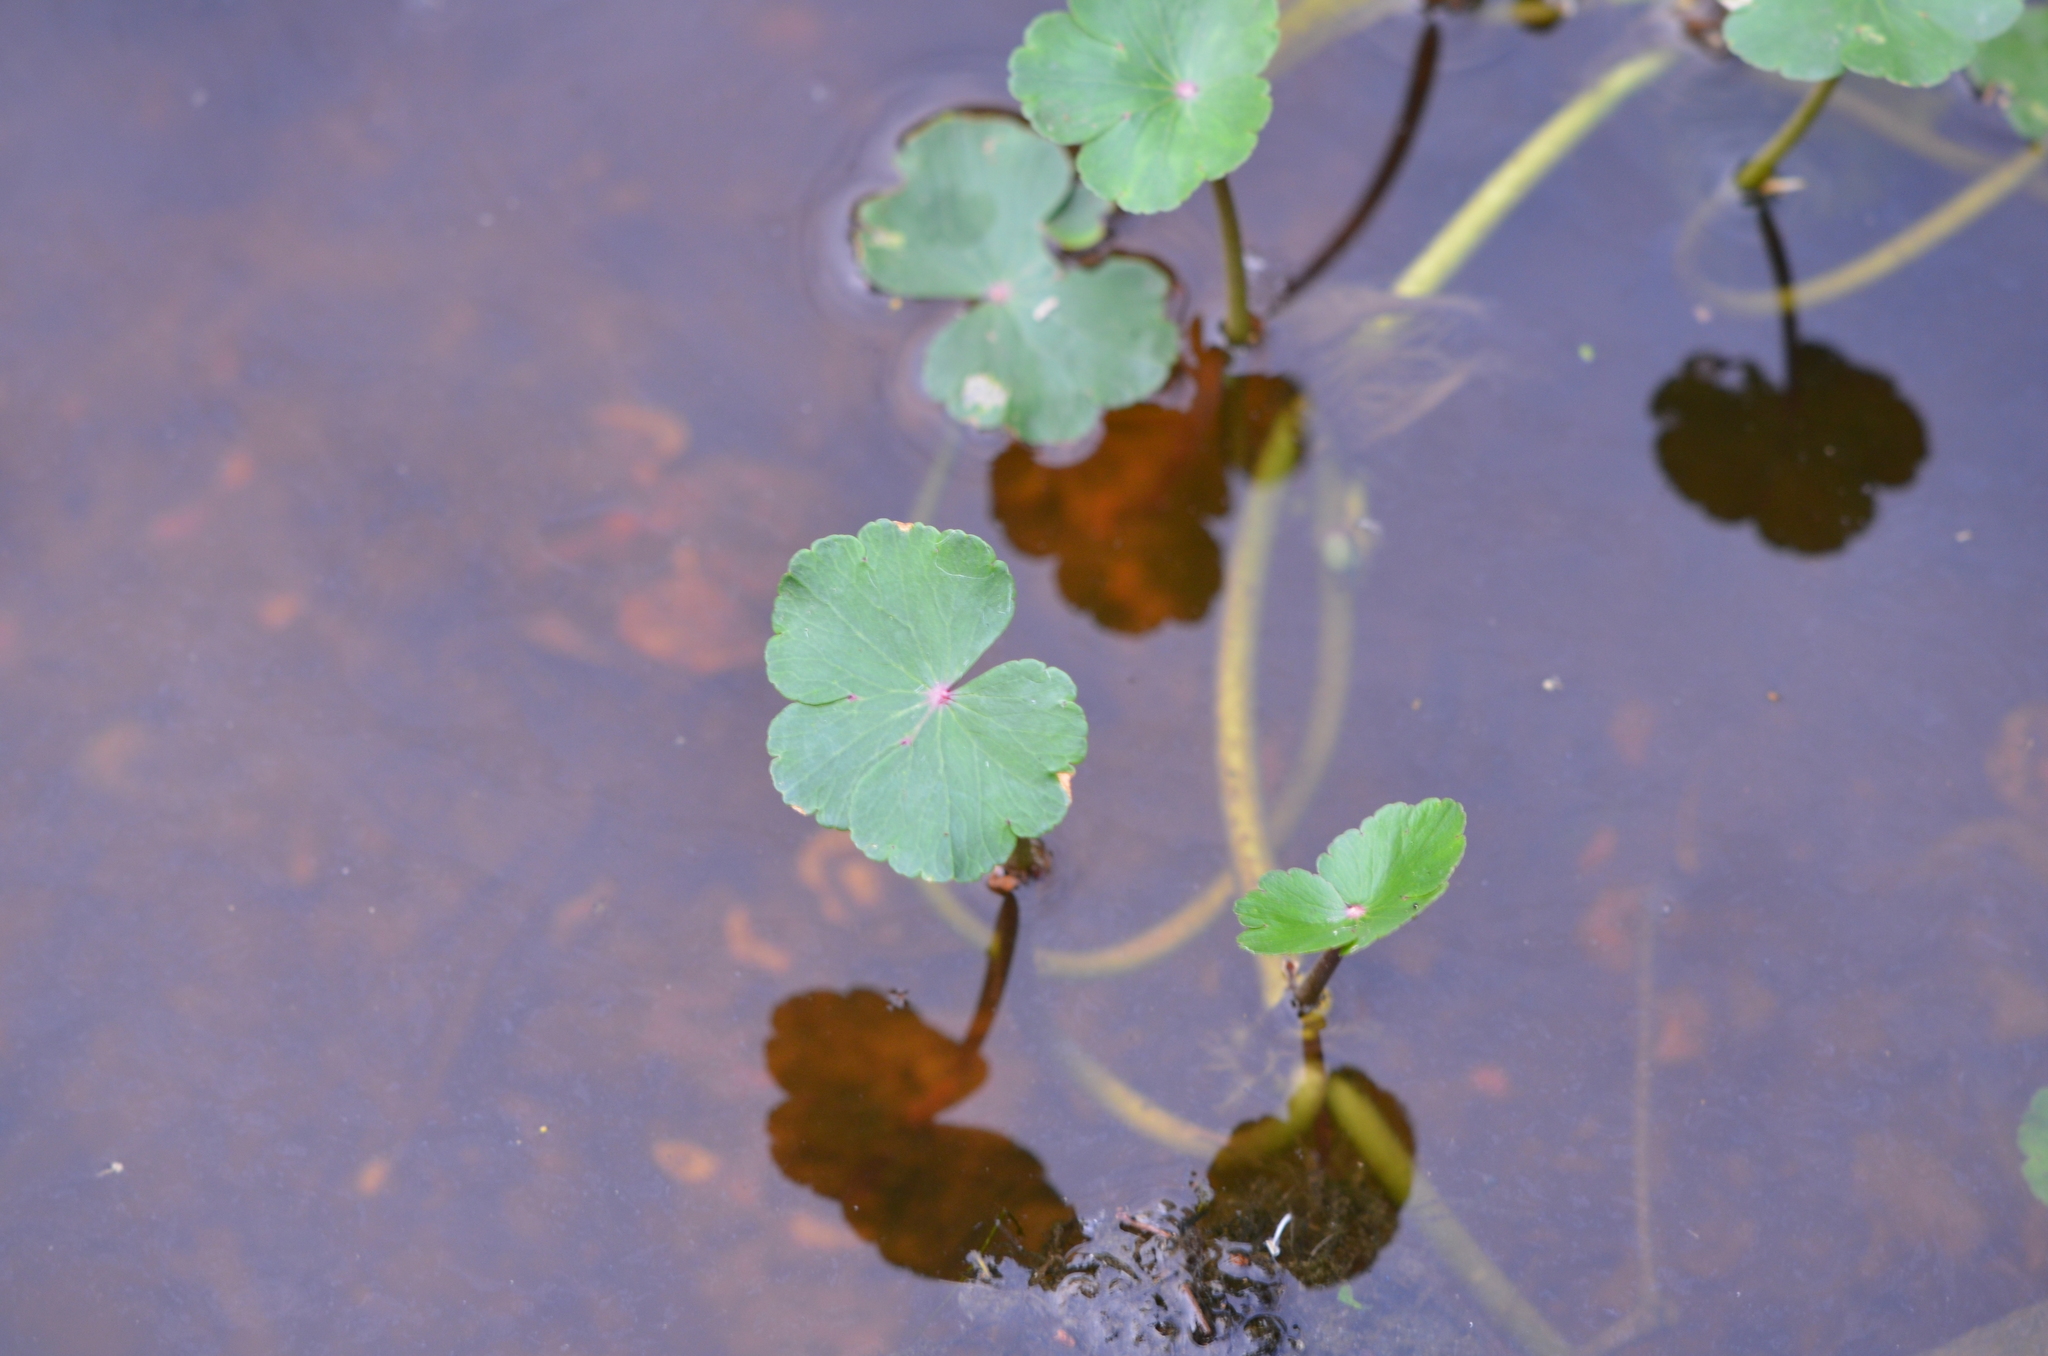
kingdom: Plantae
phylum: Tracheophyta
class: Magnoliopsida
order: Apiales
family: Araliaceae
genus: Hydrocotyle
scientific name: Hydrocotyle ranunculoides
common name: Floating pennywort
